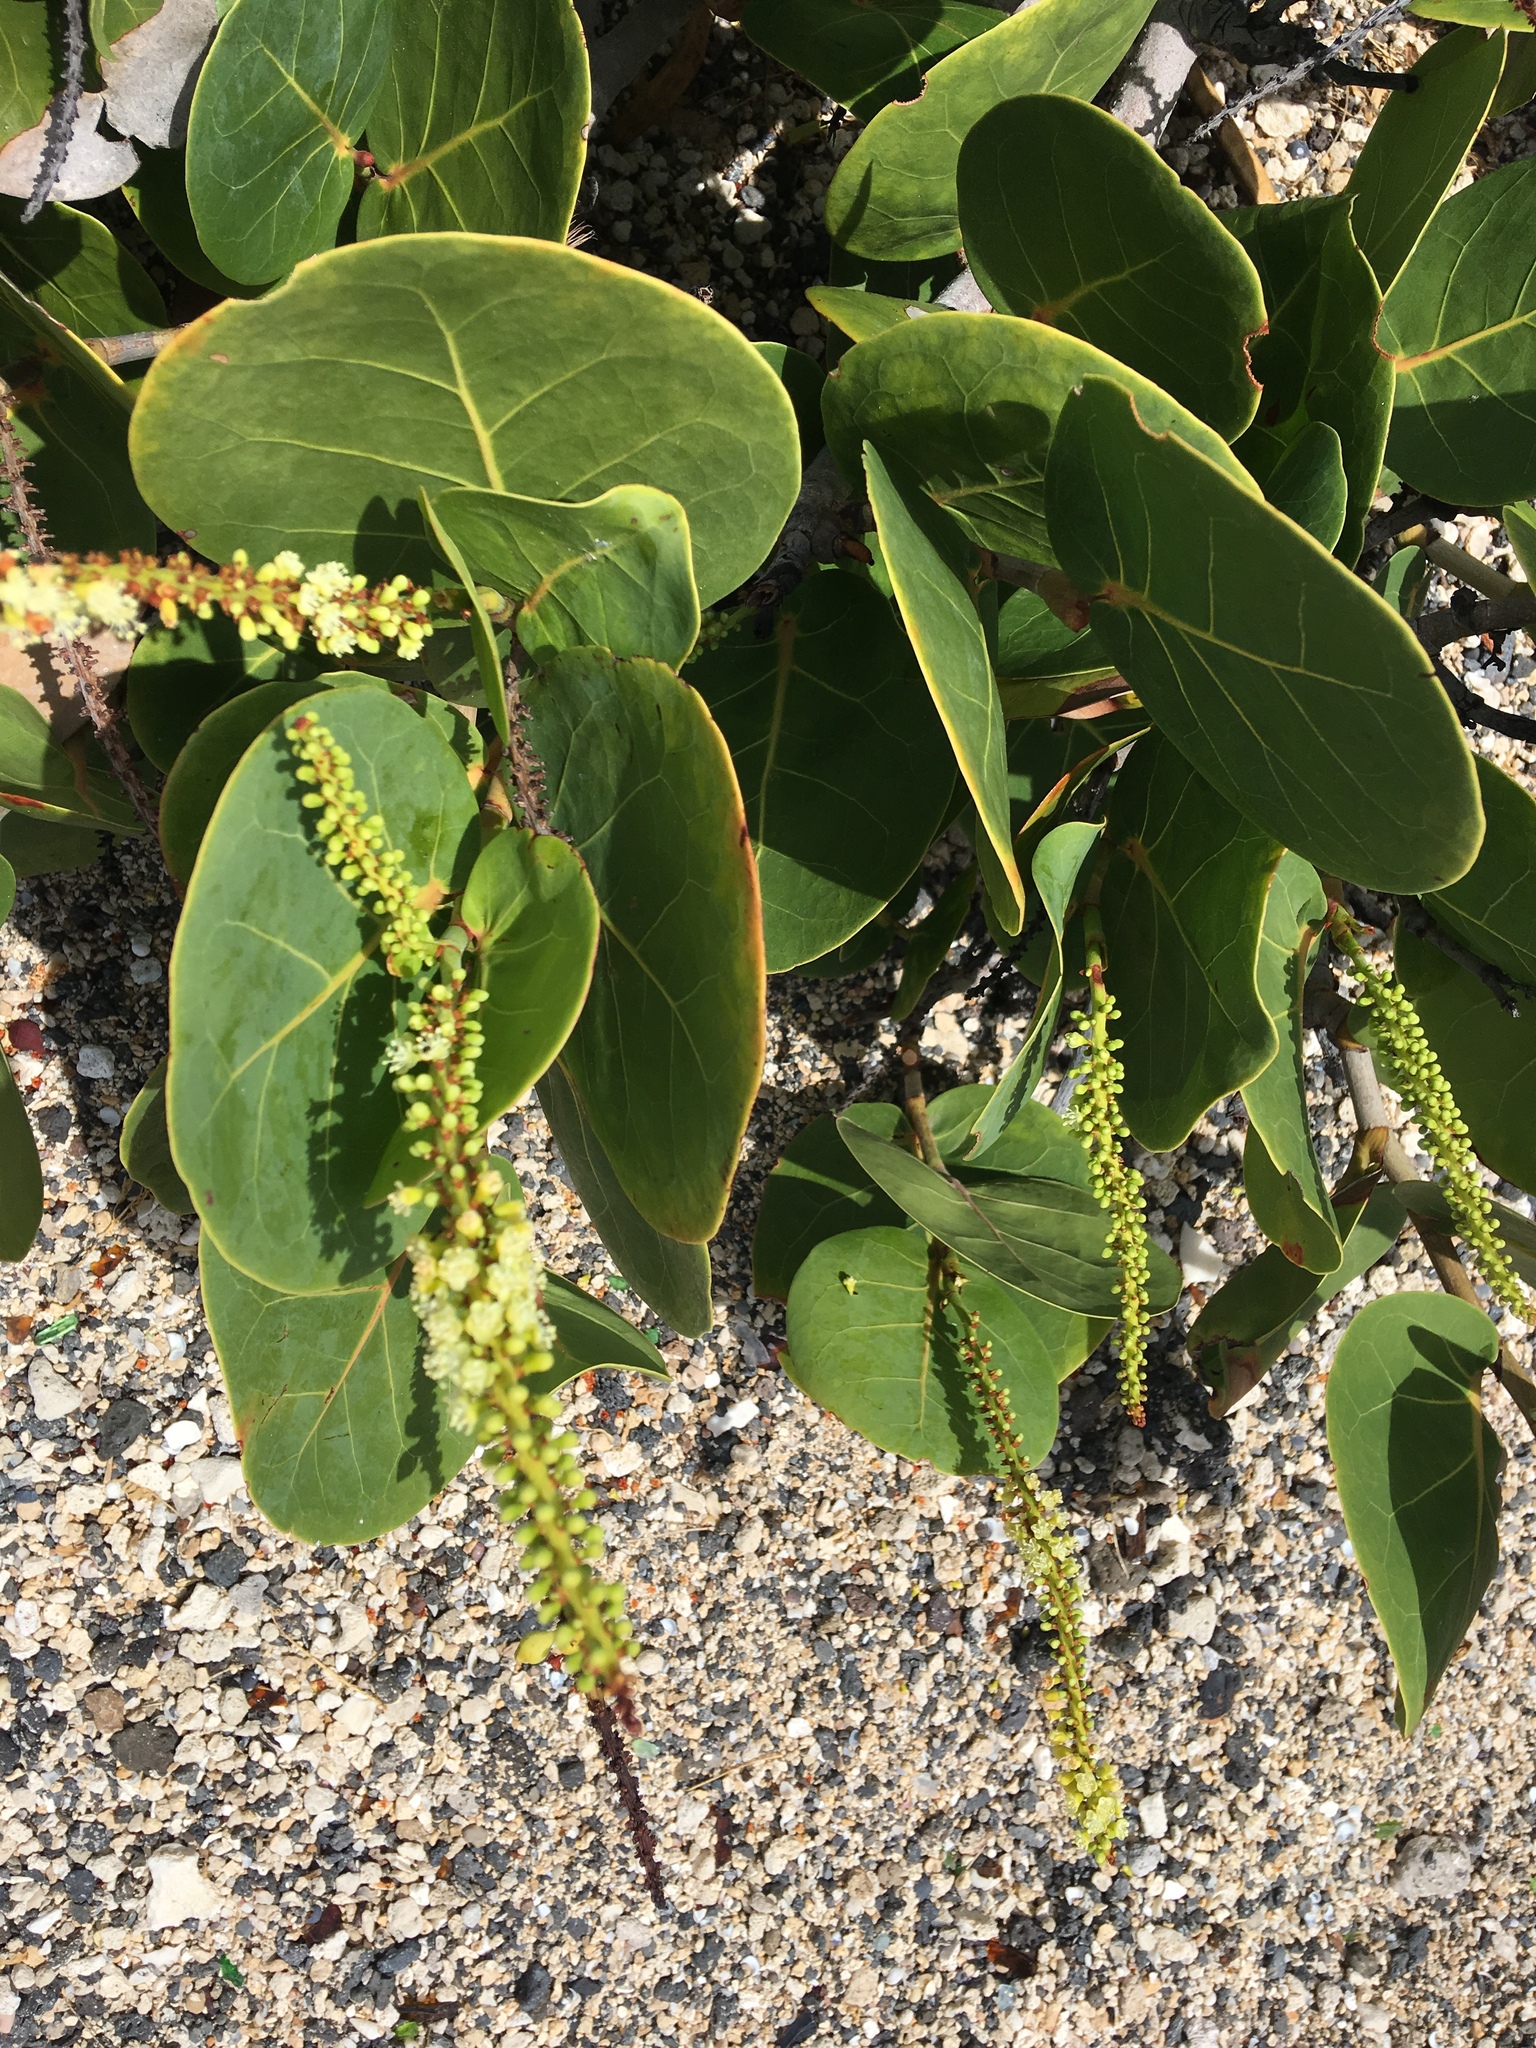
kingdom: Plantae
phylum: Tracheophyta
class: Magnoliopsida
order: Caryophyllales
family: Polygonaceae
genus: Coccoloba
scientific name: Coccoloba uvifera
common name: Seagrape
